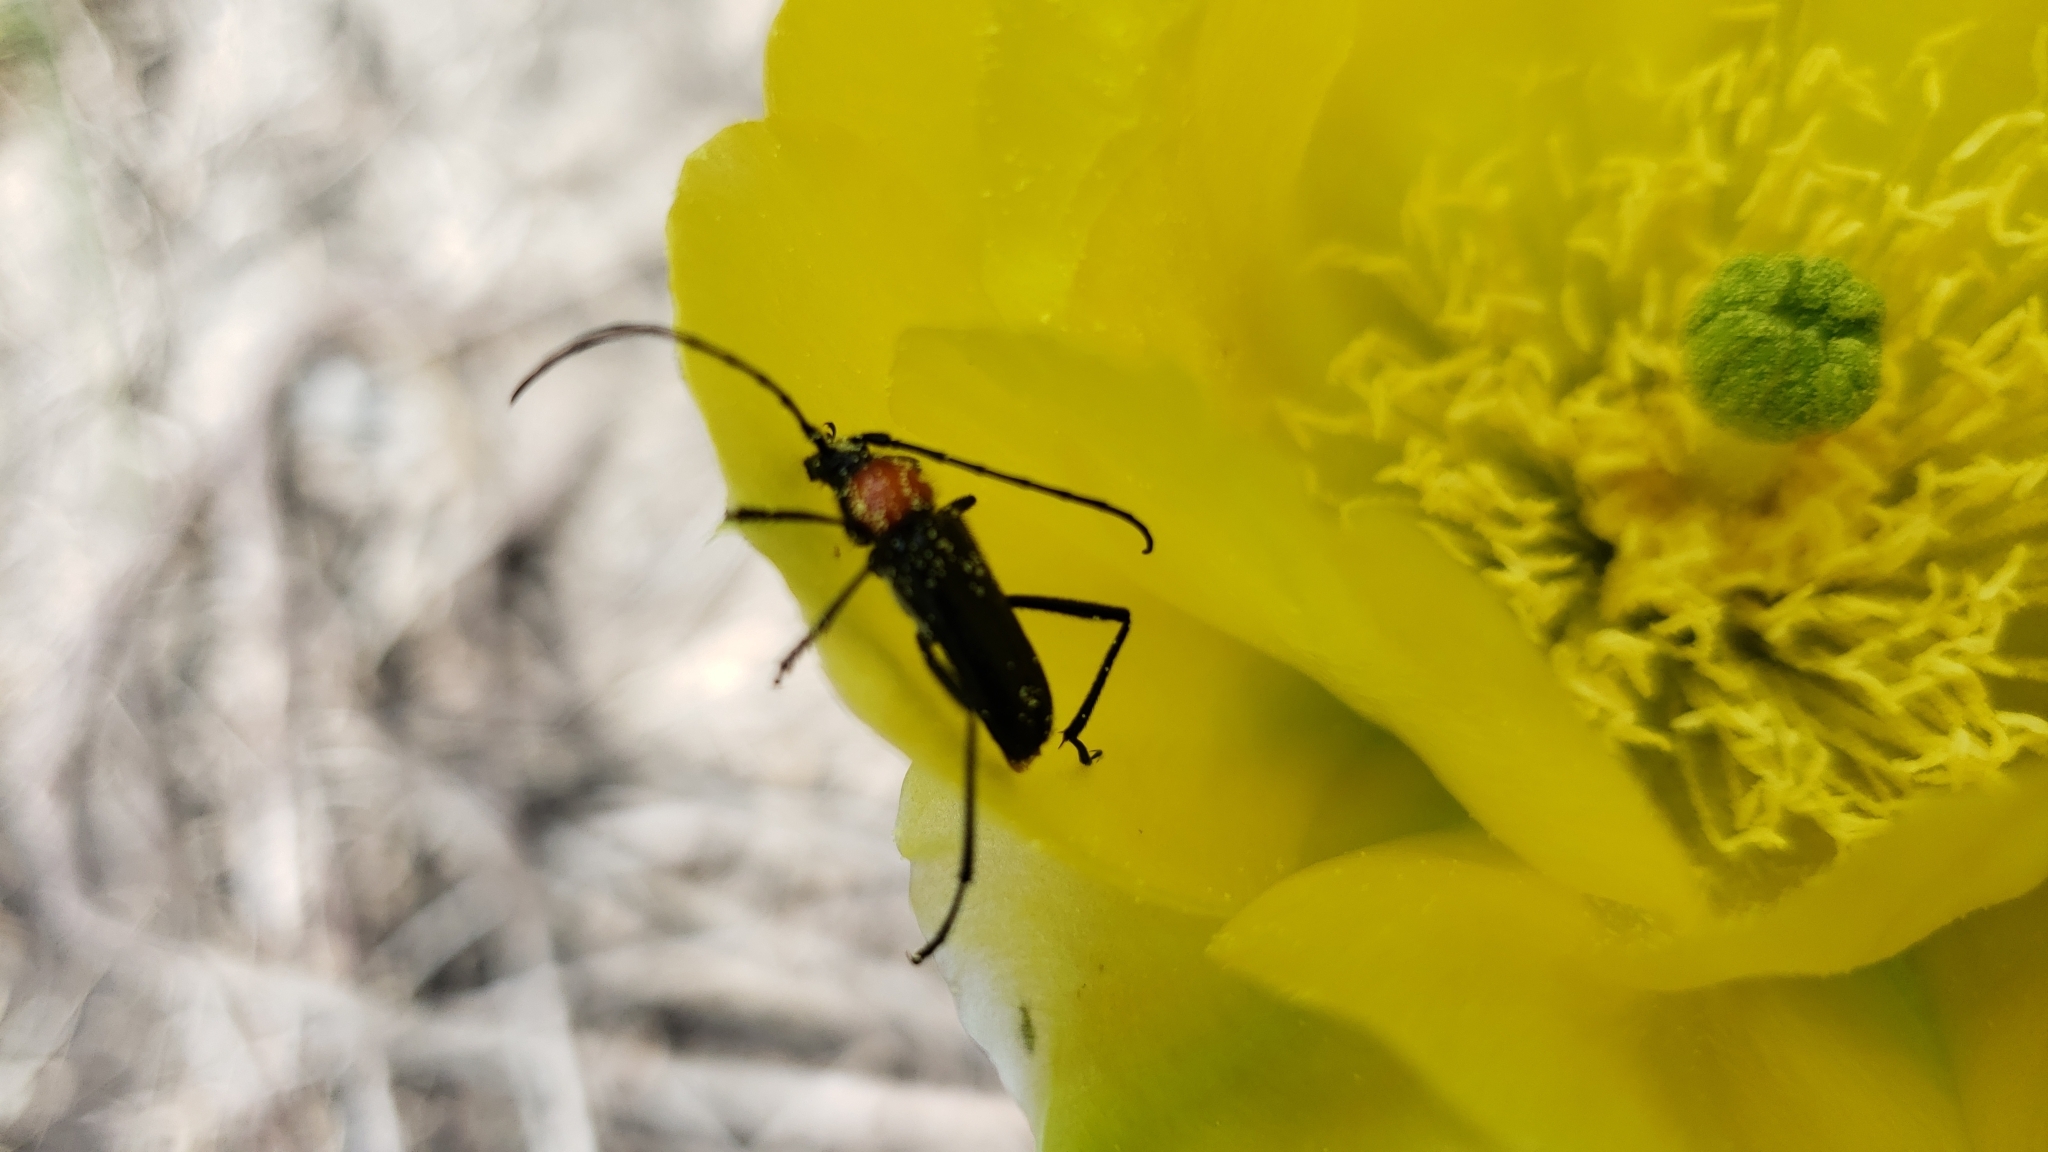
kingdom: Animalia
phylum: Arthropoda
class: Insecta
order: Coleoptera
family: Cerambycidae
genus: Batyle
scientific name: Batyle ignicollis
